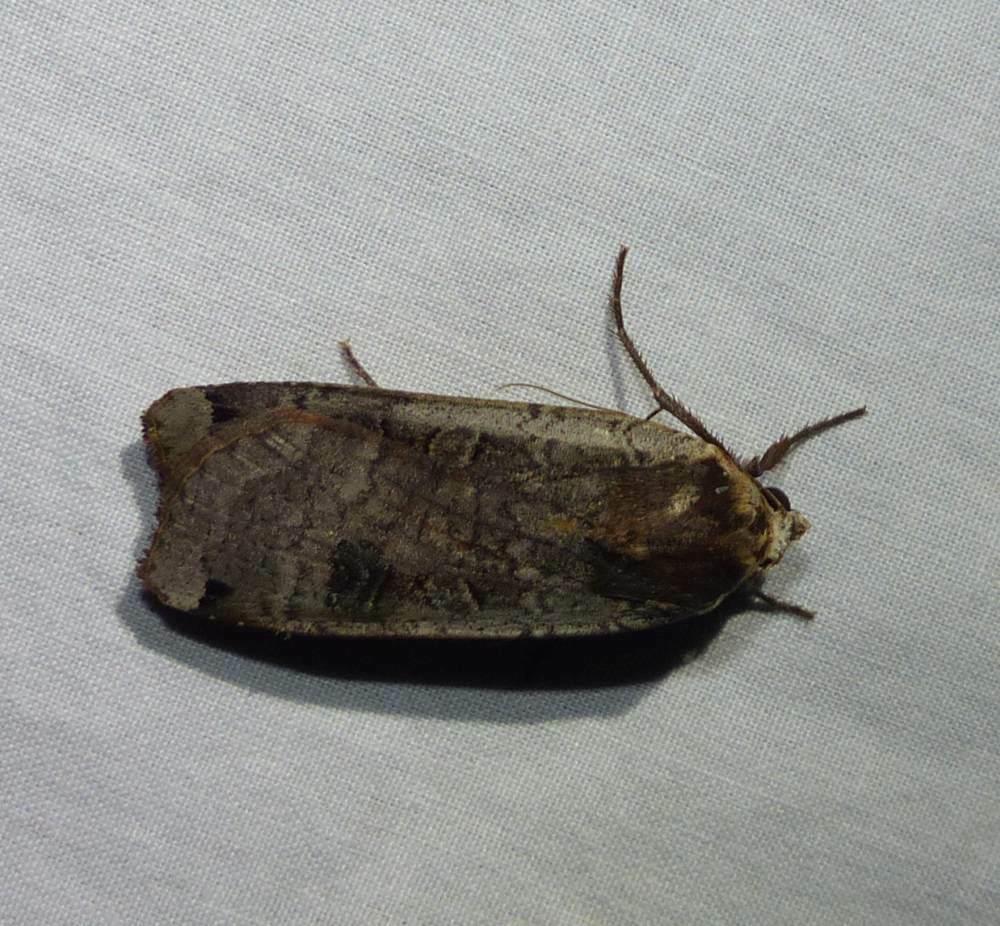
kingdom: Animalia
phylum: Arthropoda
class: Insecta
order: Lepidoptera
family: Noctuidae
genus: Noctua
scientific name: Noctua pronuba
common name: Large yellow underwing
